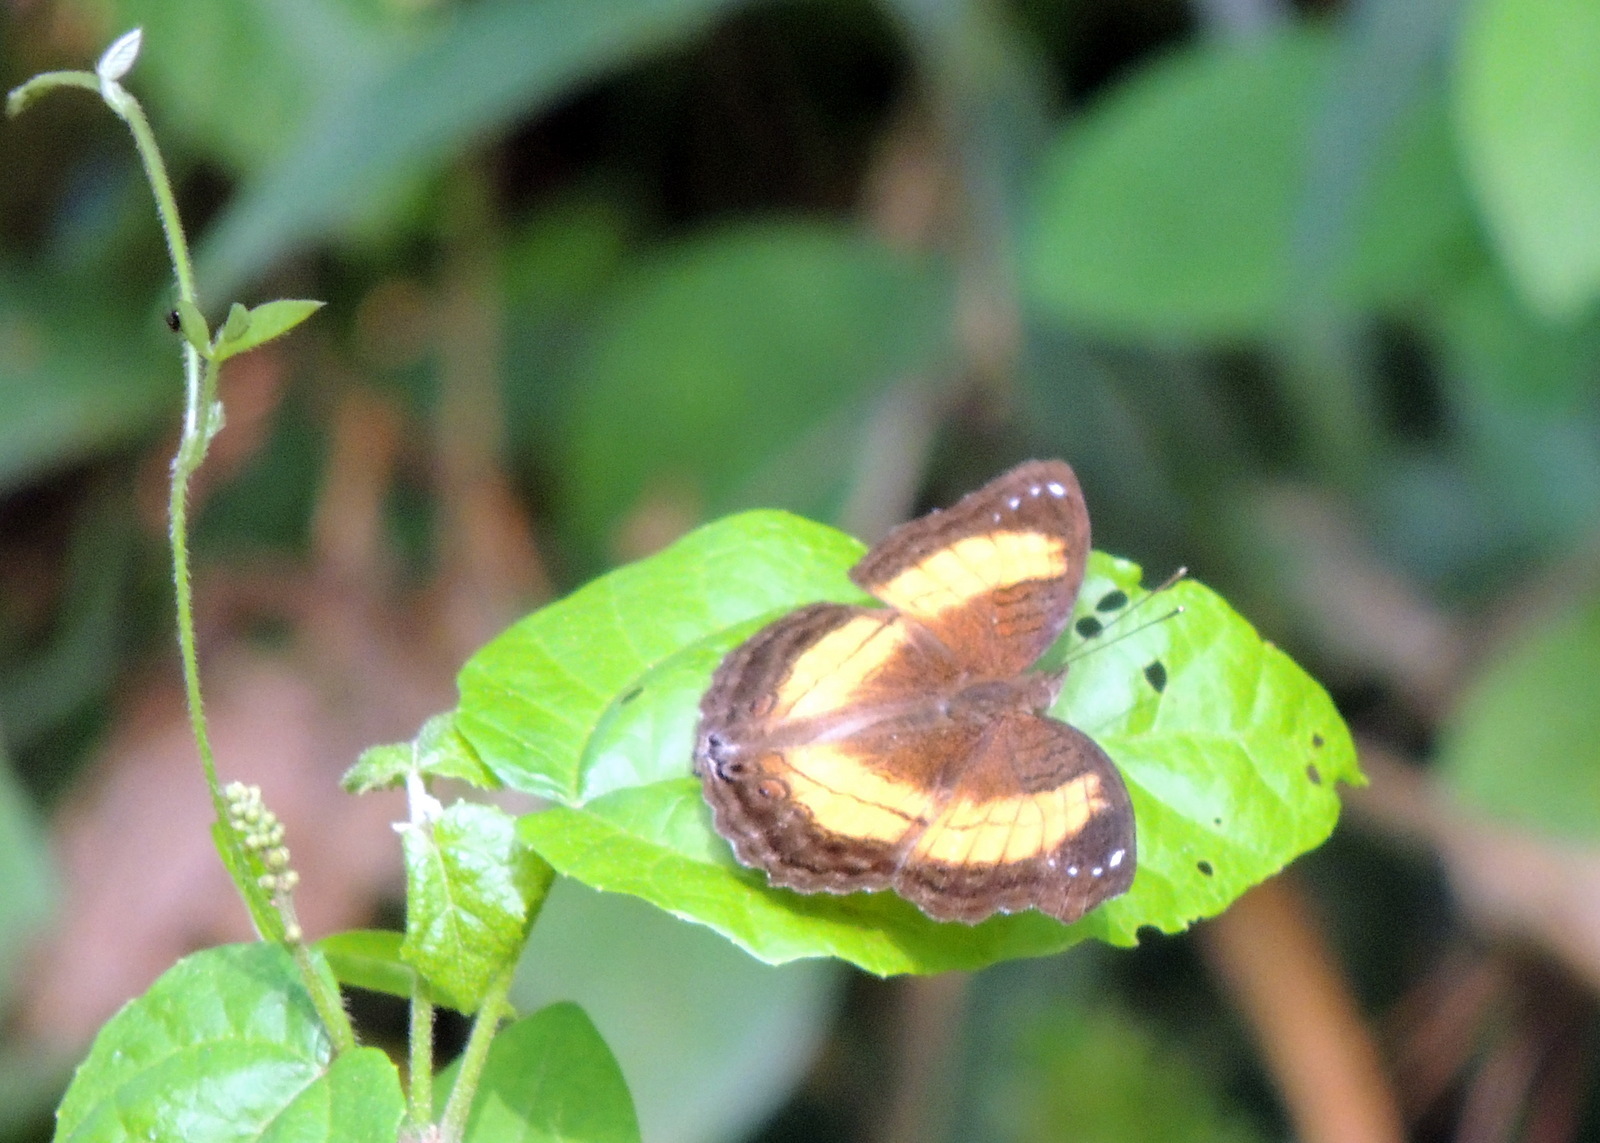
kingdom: Animalia
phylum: Arthropoda
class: Insecta
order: Lepidoptera
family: Nymphalidae
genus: Junonia
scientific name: Junonia terea
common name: Soldier pansy
